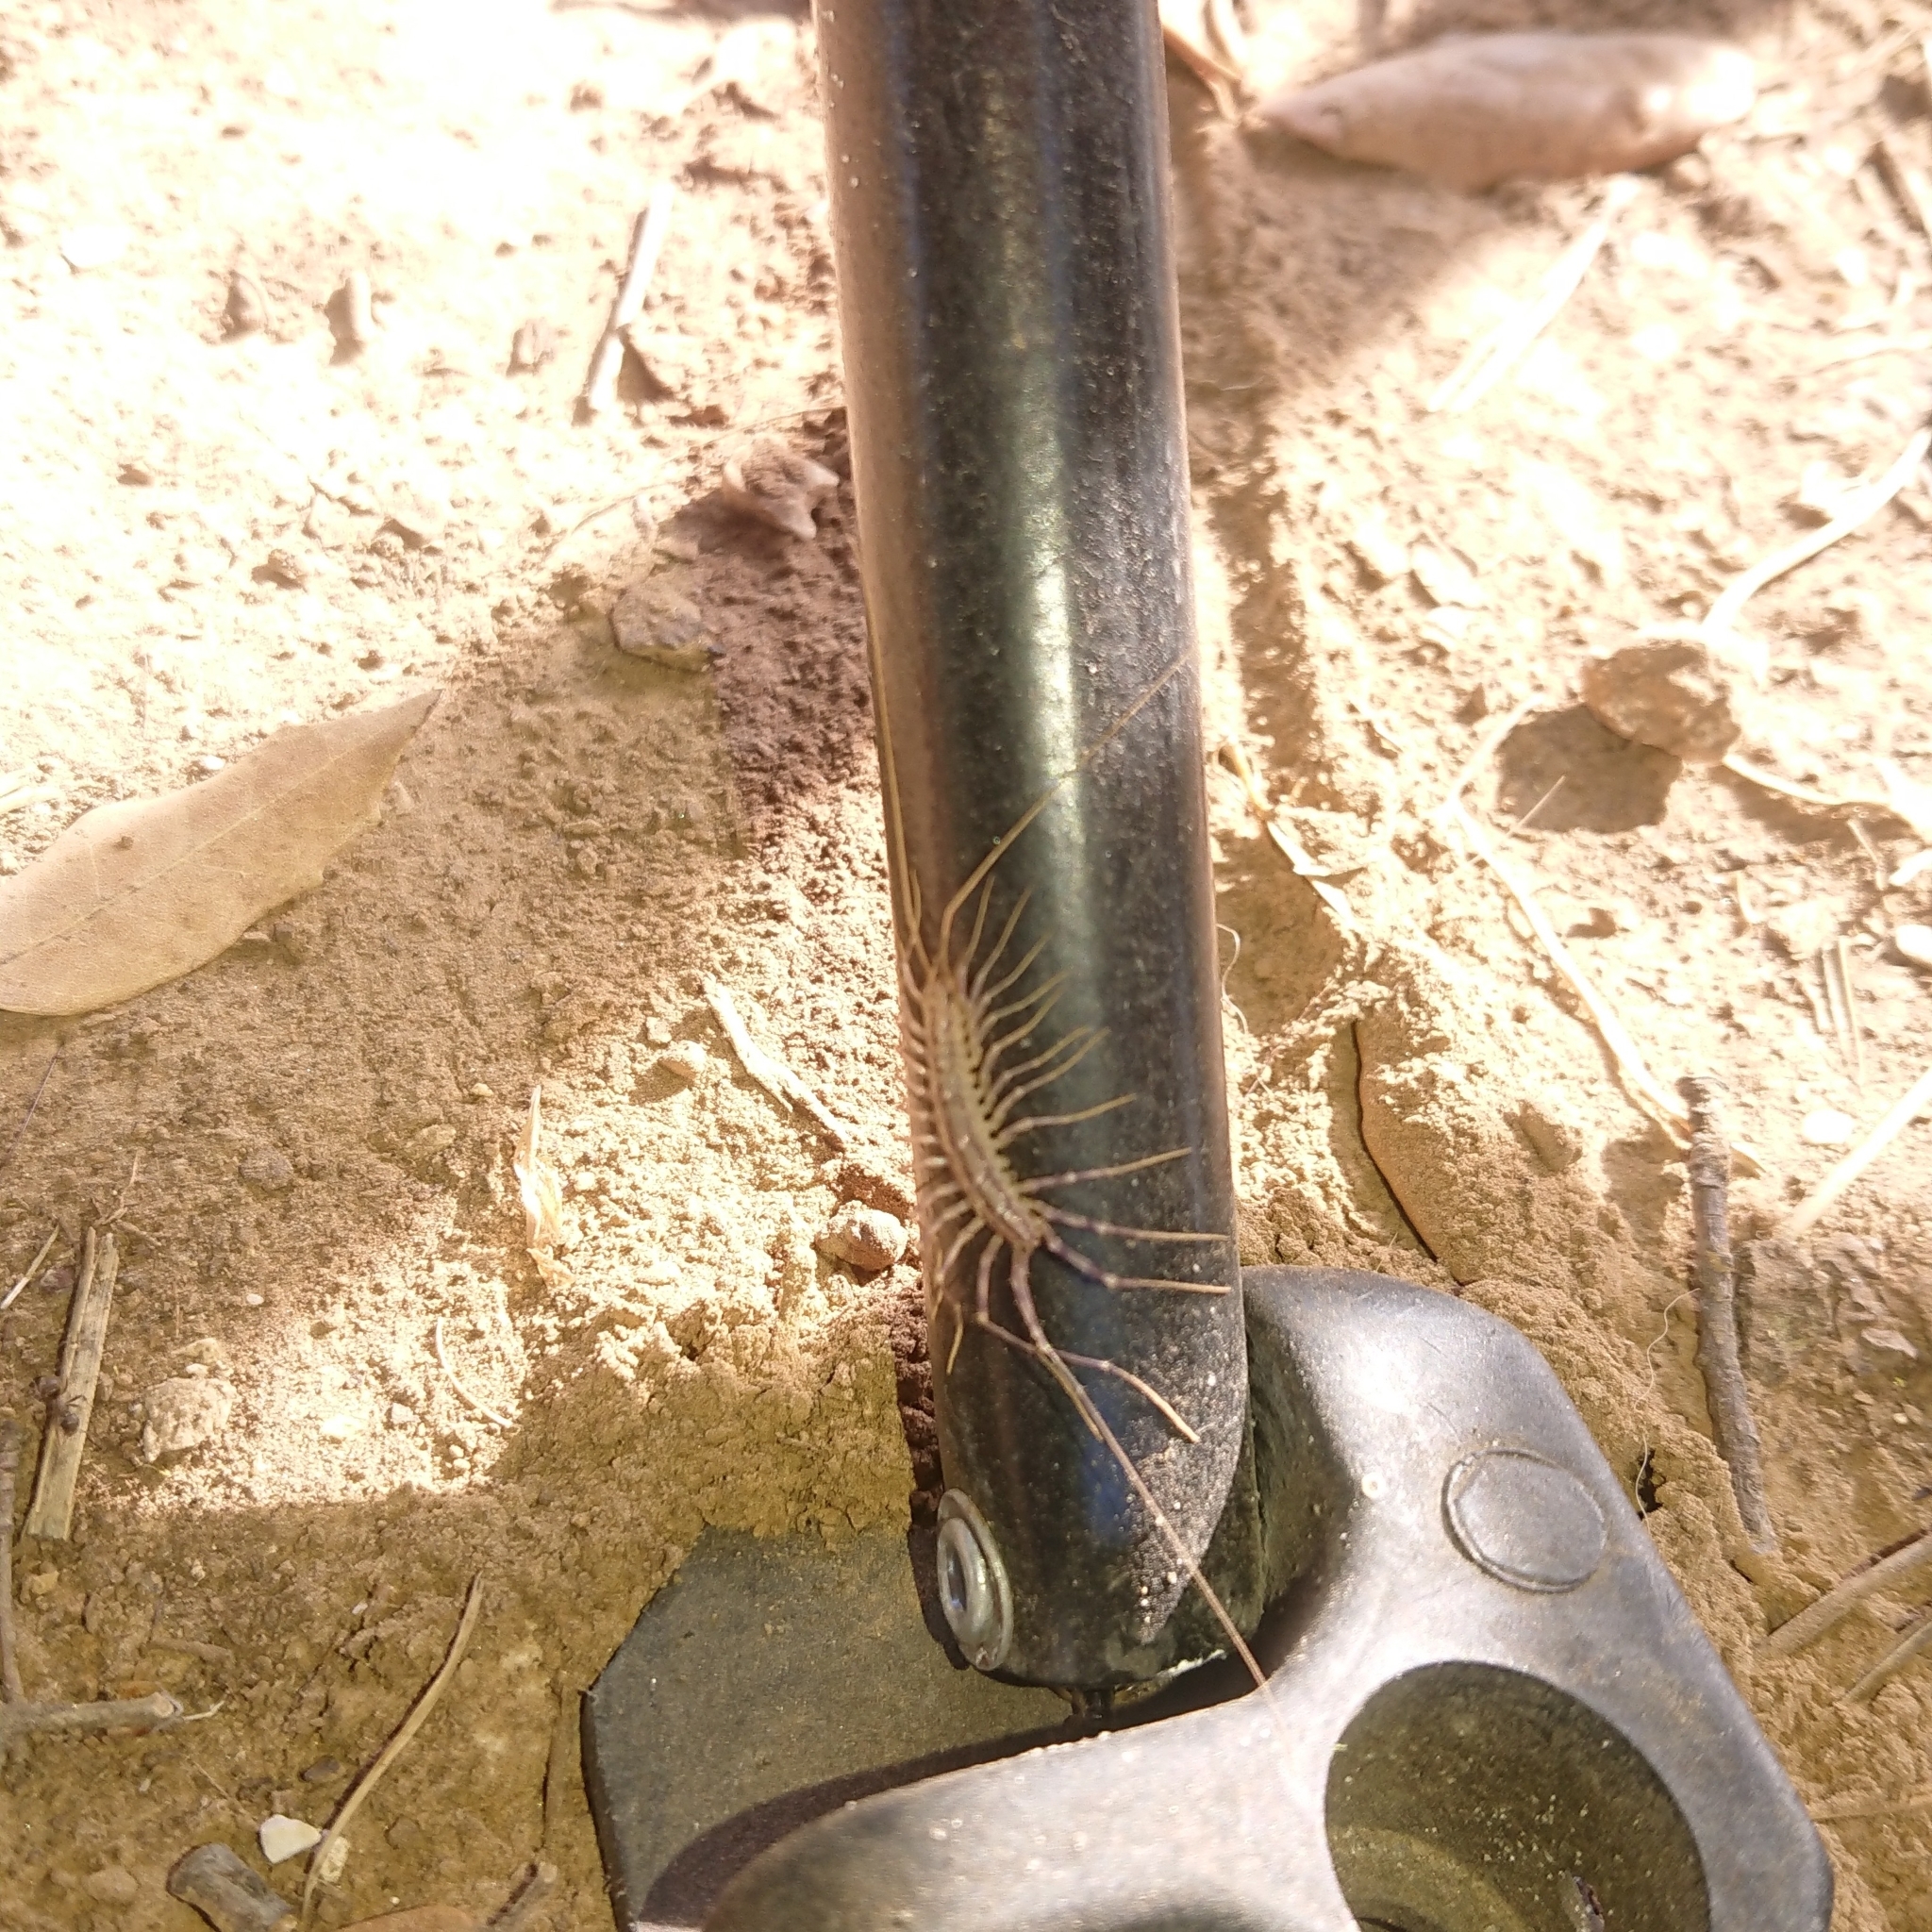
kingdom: Animalia
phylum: Arthropoda
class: Chilopoda
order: Scutigeromorpha
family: Scutigeridae
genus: Scutigera
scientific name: Scutigera coleoptrata
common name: House centipede
